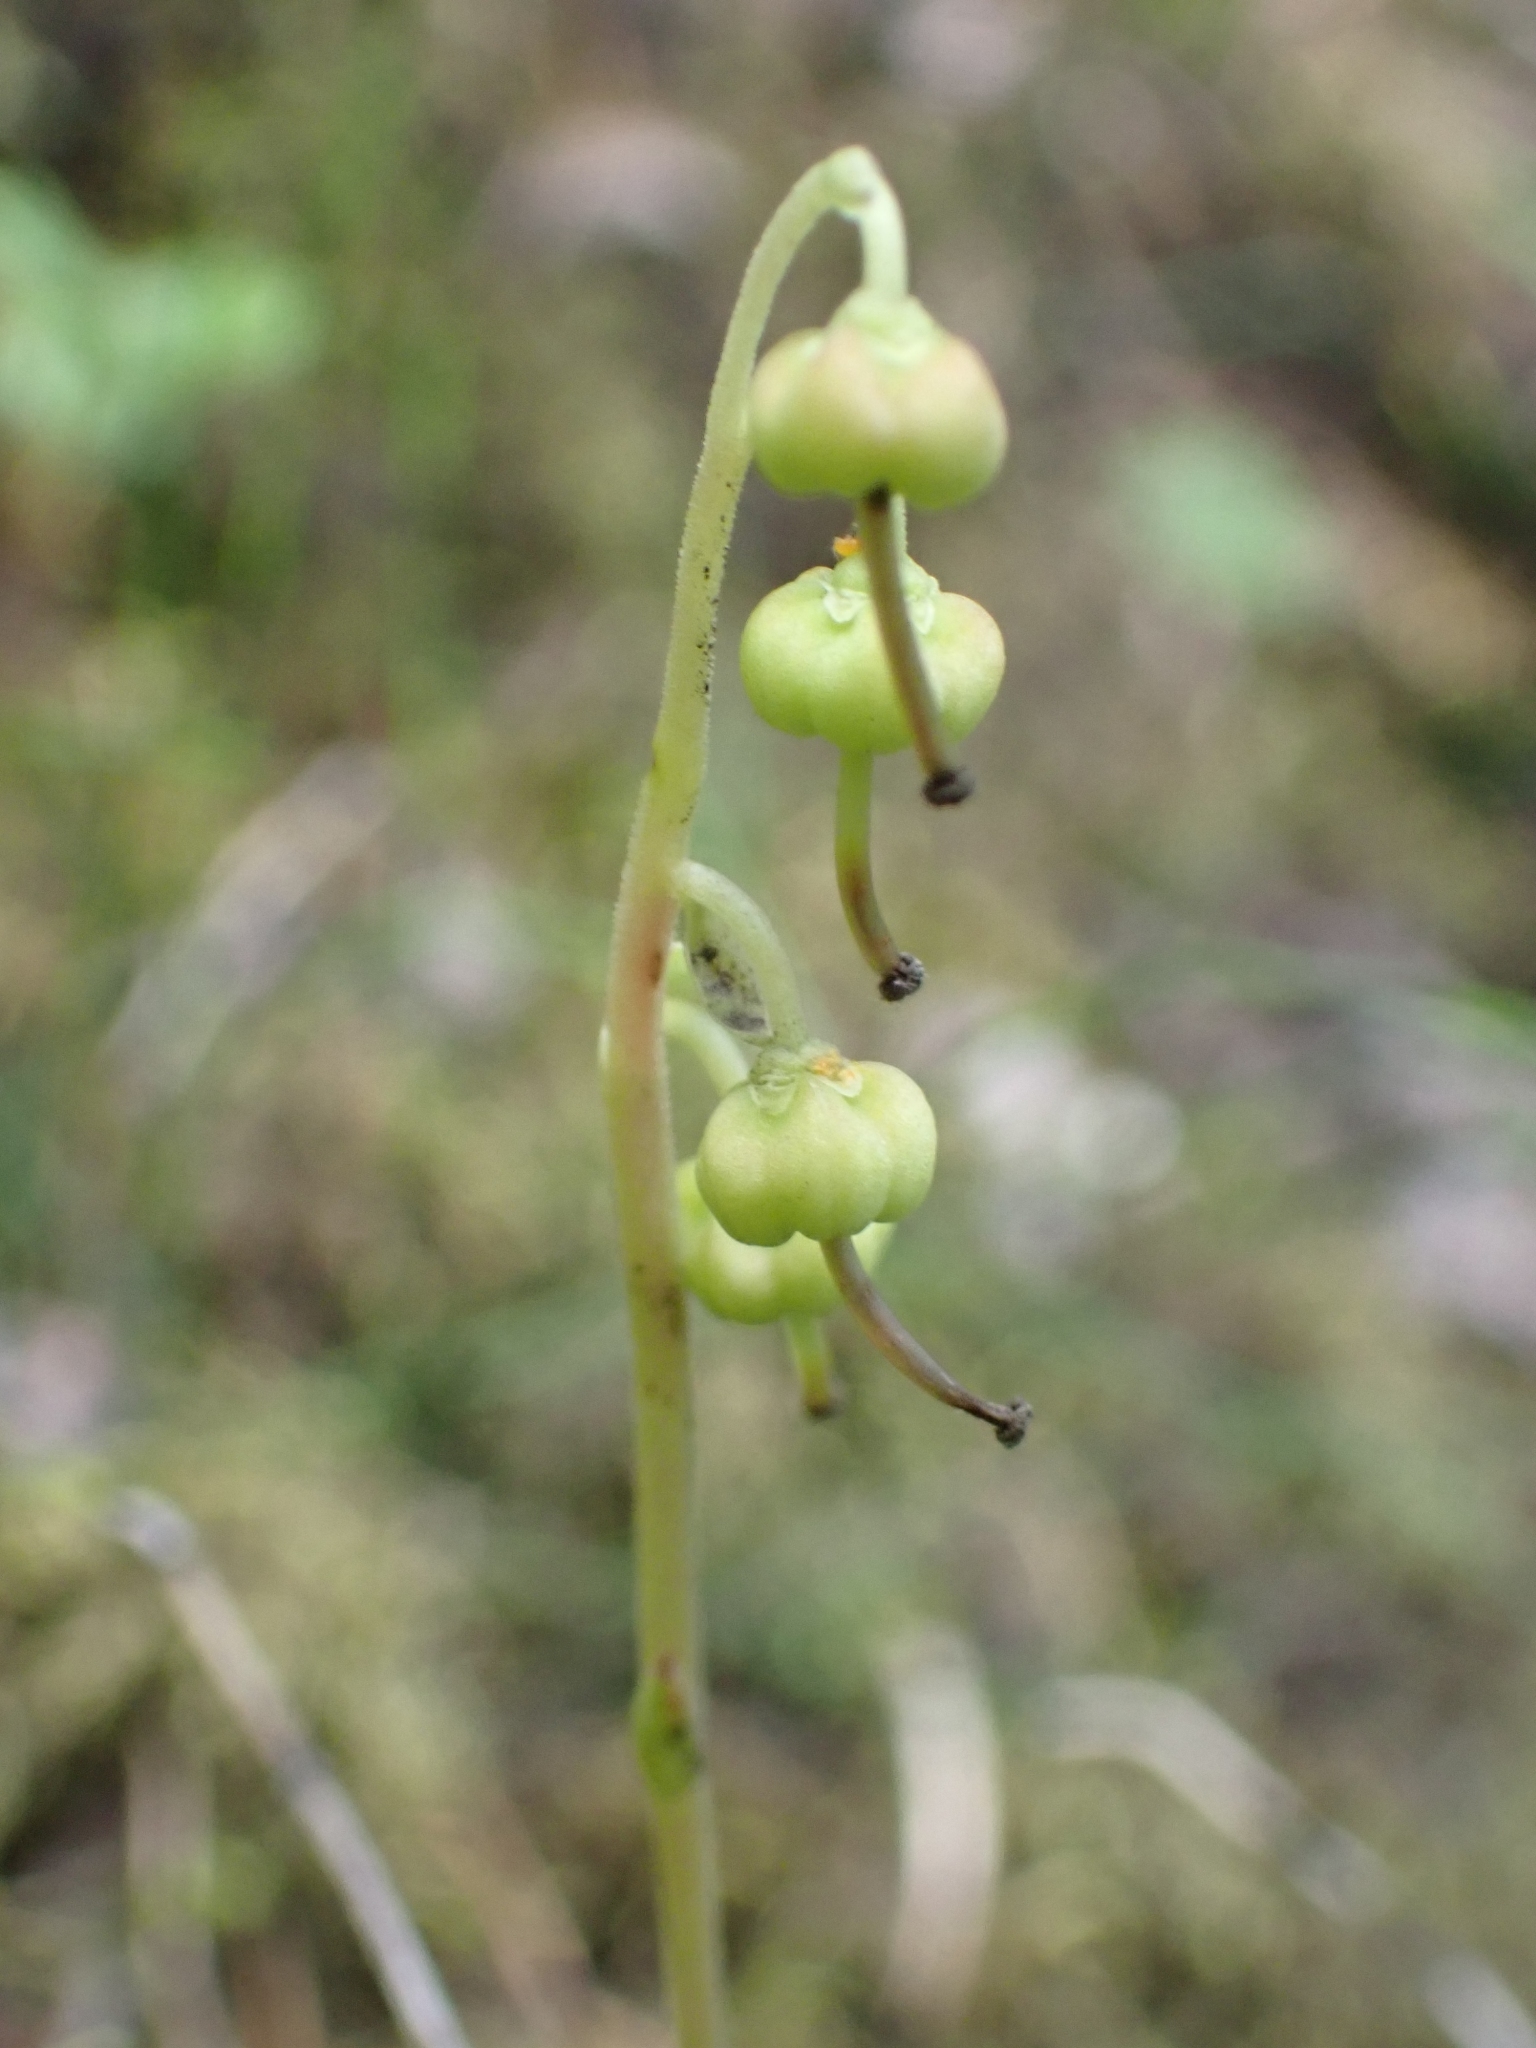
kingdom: Plantae
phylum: Tracheophyta
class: Magnoliopsida
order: Ericales
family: Ericaceae
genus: Orthilia
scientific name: Orthilia secunda
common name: One-sided orthilia
